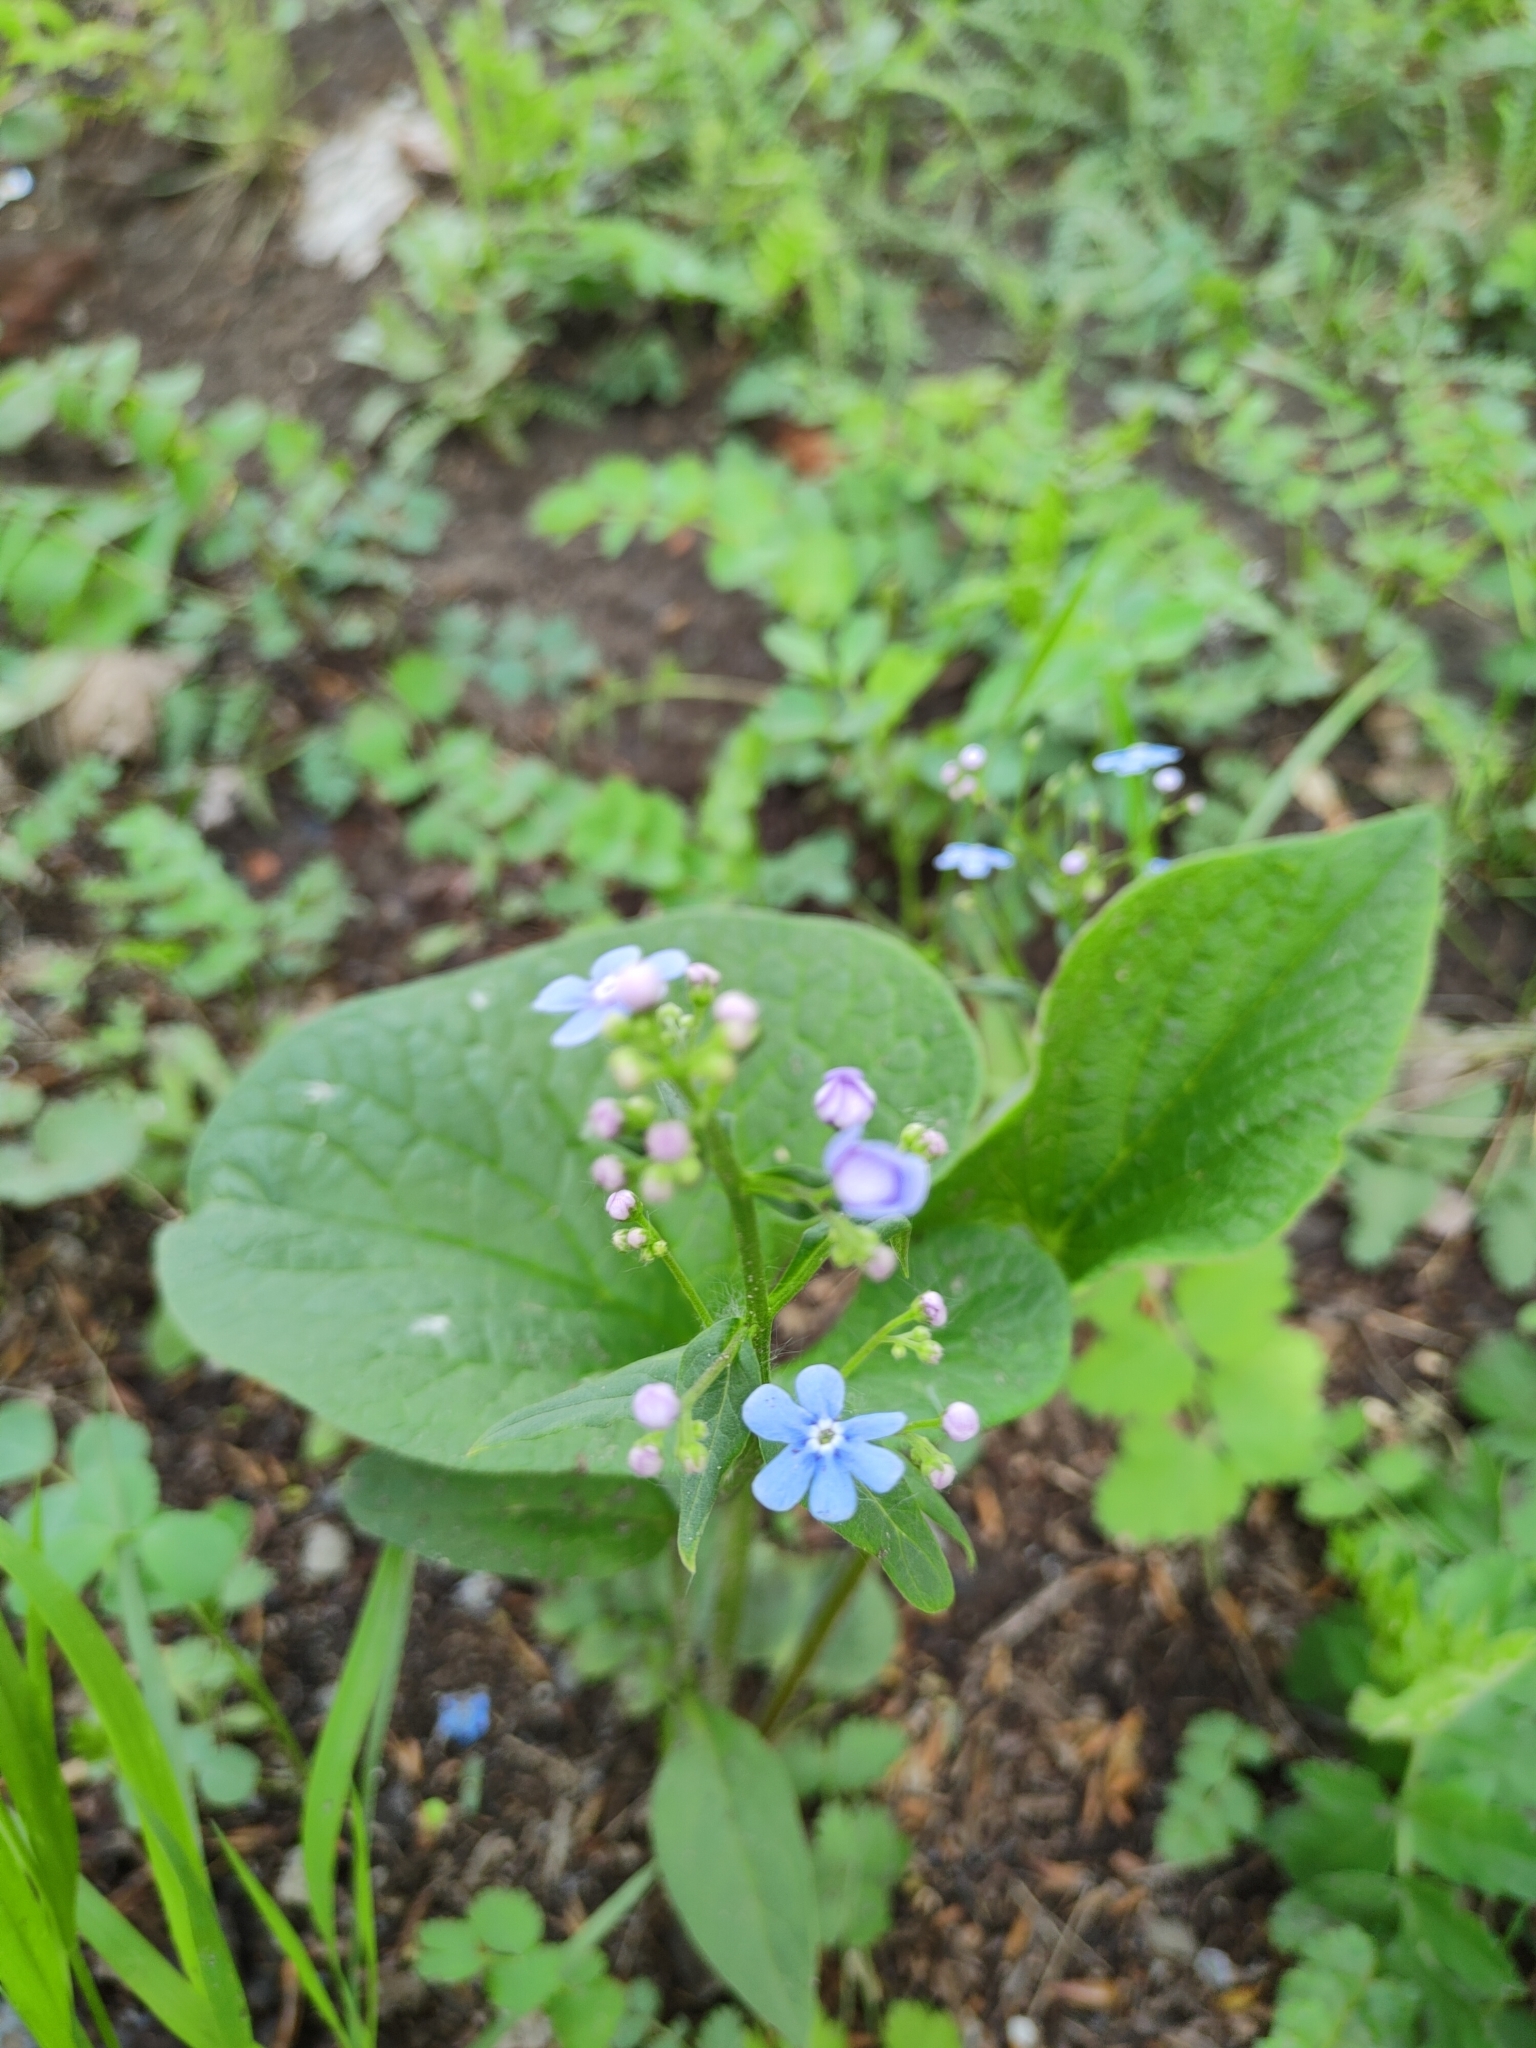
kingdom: Plantae
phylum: Tracheophyta
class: Magnoliopsida
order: Boraginales
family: Boraginaceae
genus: Brunnera
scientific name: Brunnera sibirica
